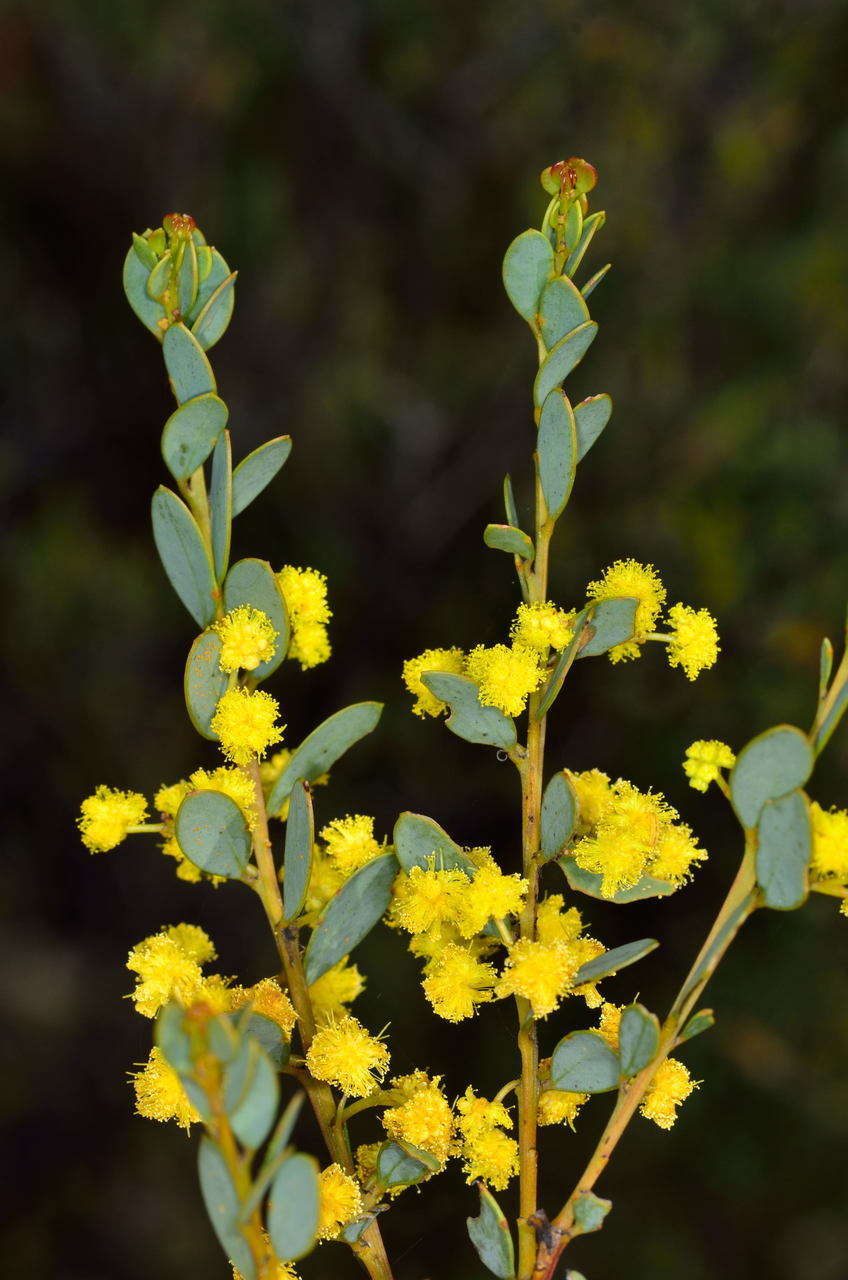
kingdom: Plantae
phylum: Tracheophyta
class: Magnoliopsida
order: Fabales
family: Fabaceae
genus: Acacia
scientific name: Acacia buxifolia
